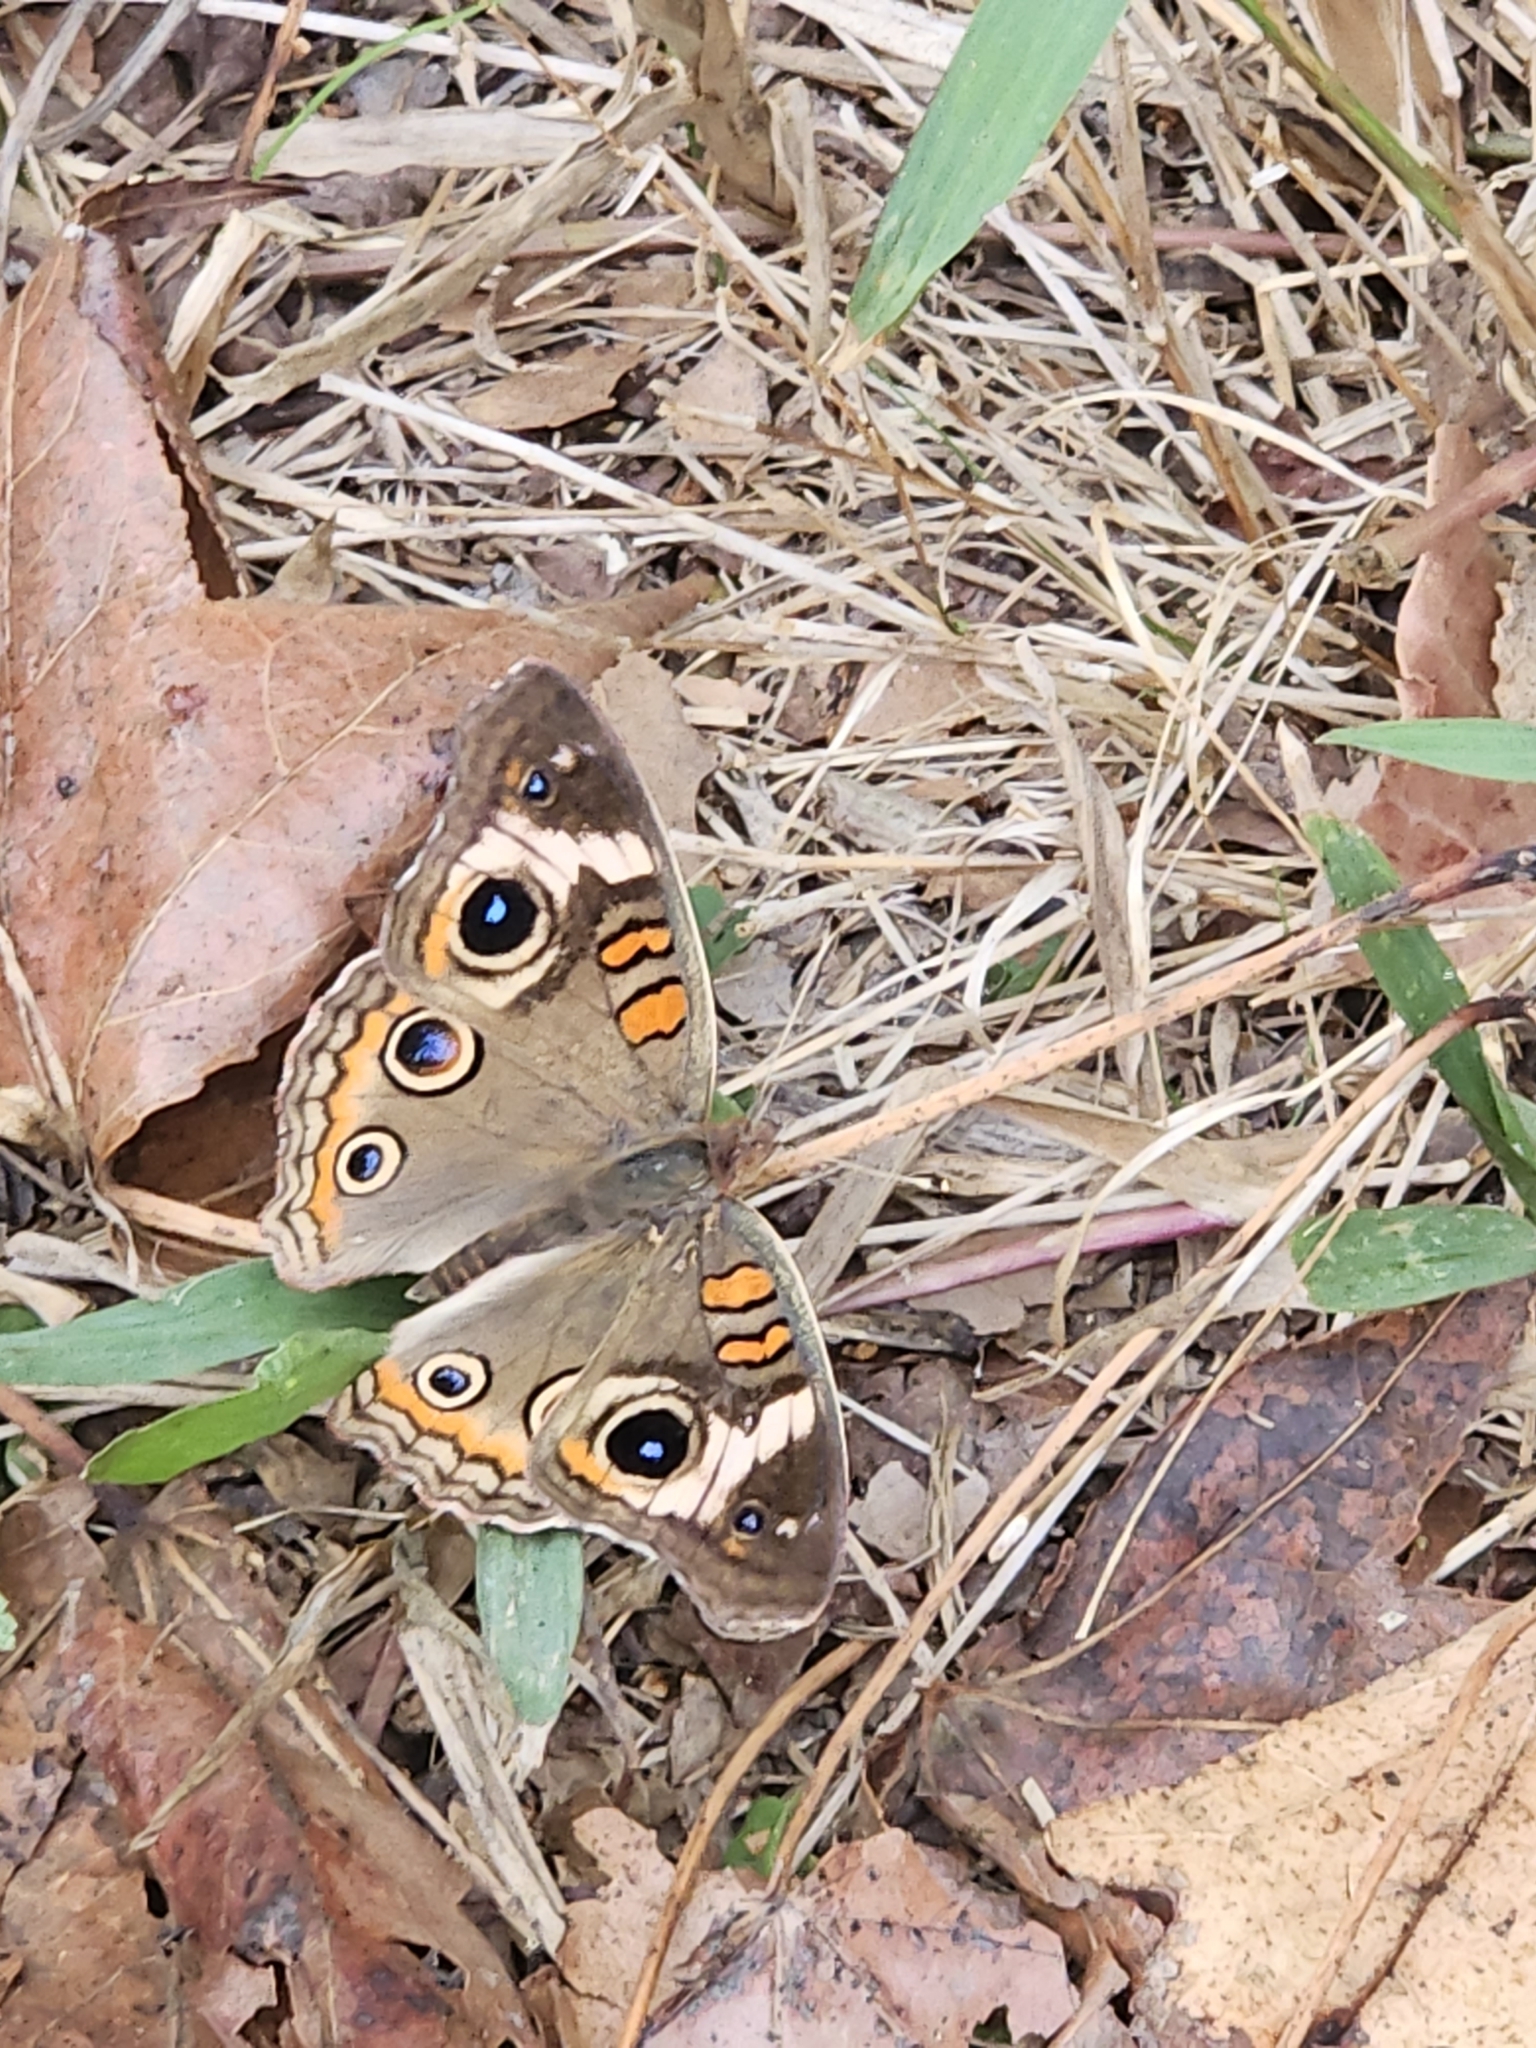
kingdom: Animalia
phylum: Arthropoda
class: Insecta
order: Lepidoptera
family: Nymphalidae
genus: Junonia
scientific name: Junonia coenia
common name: Common buckeye
